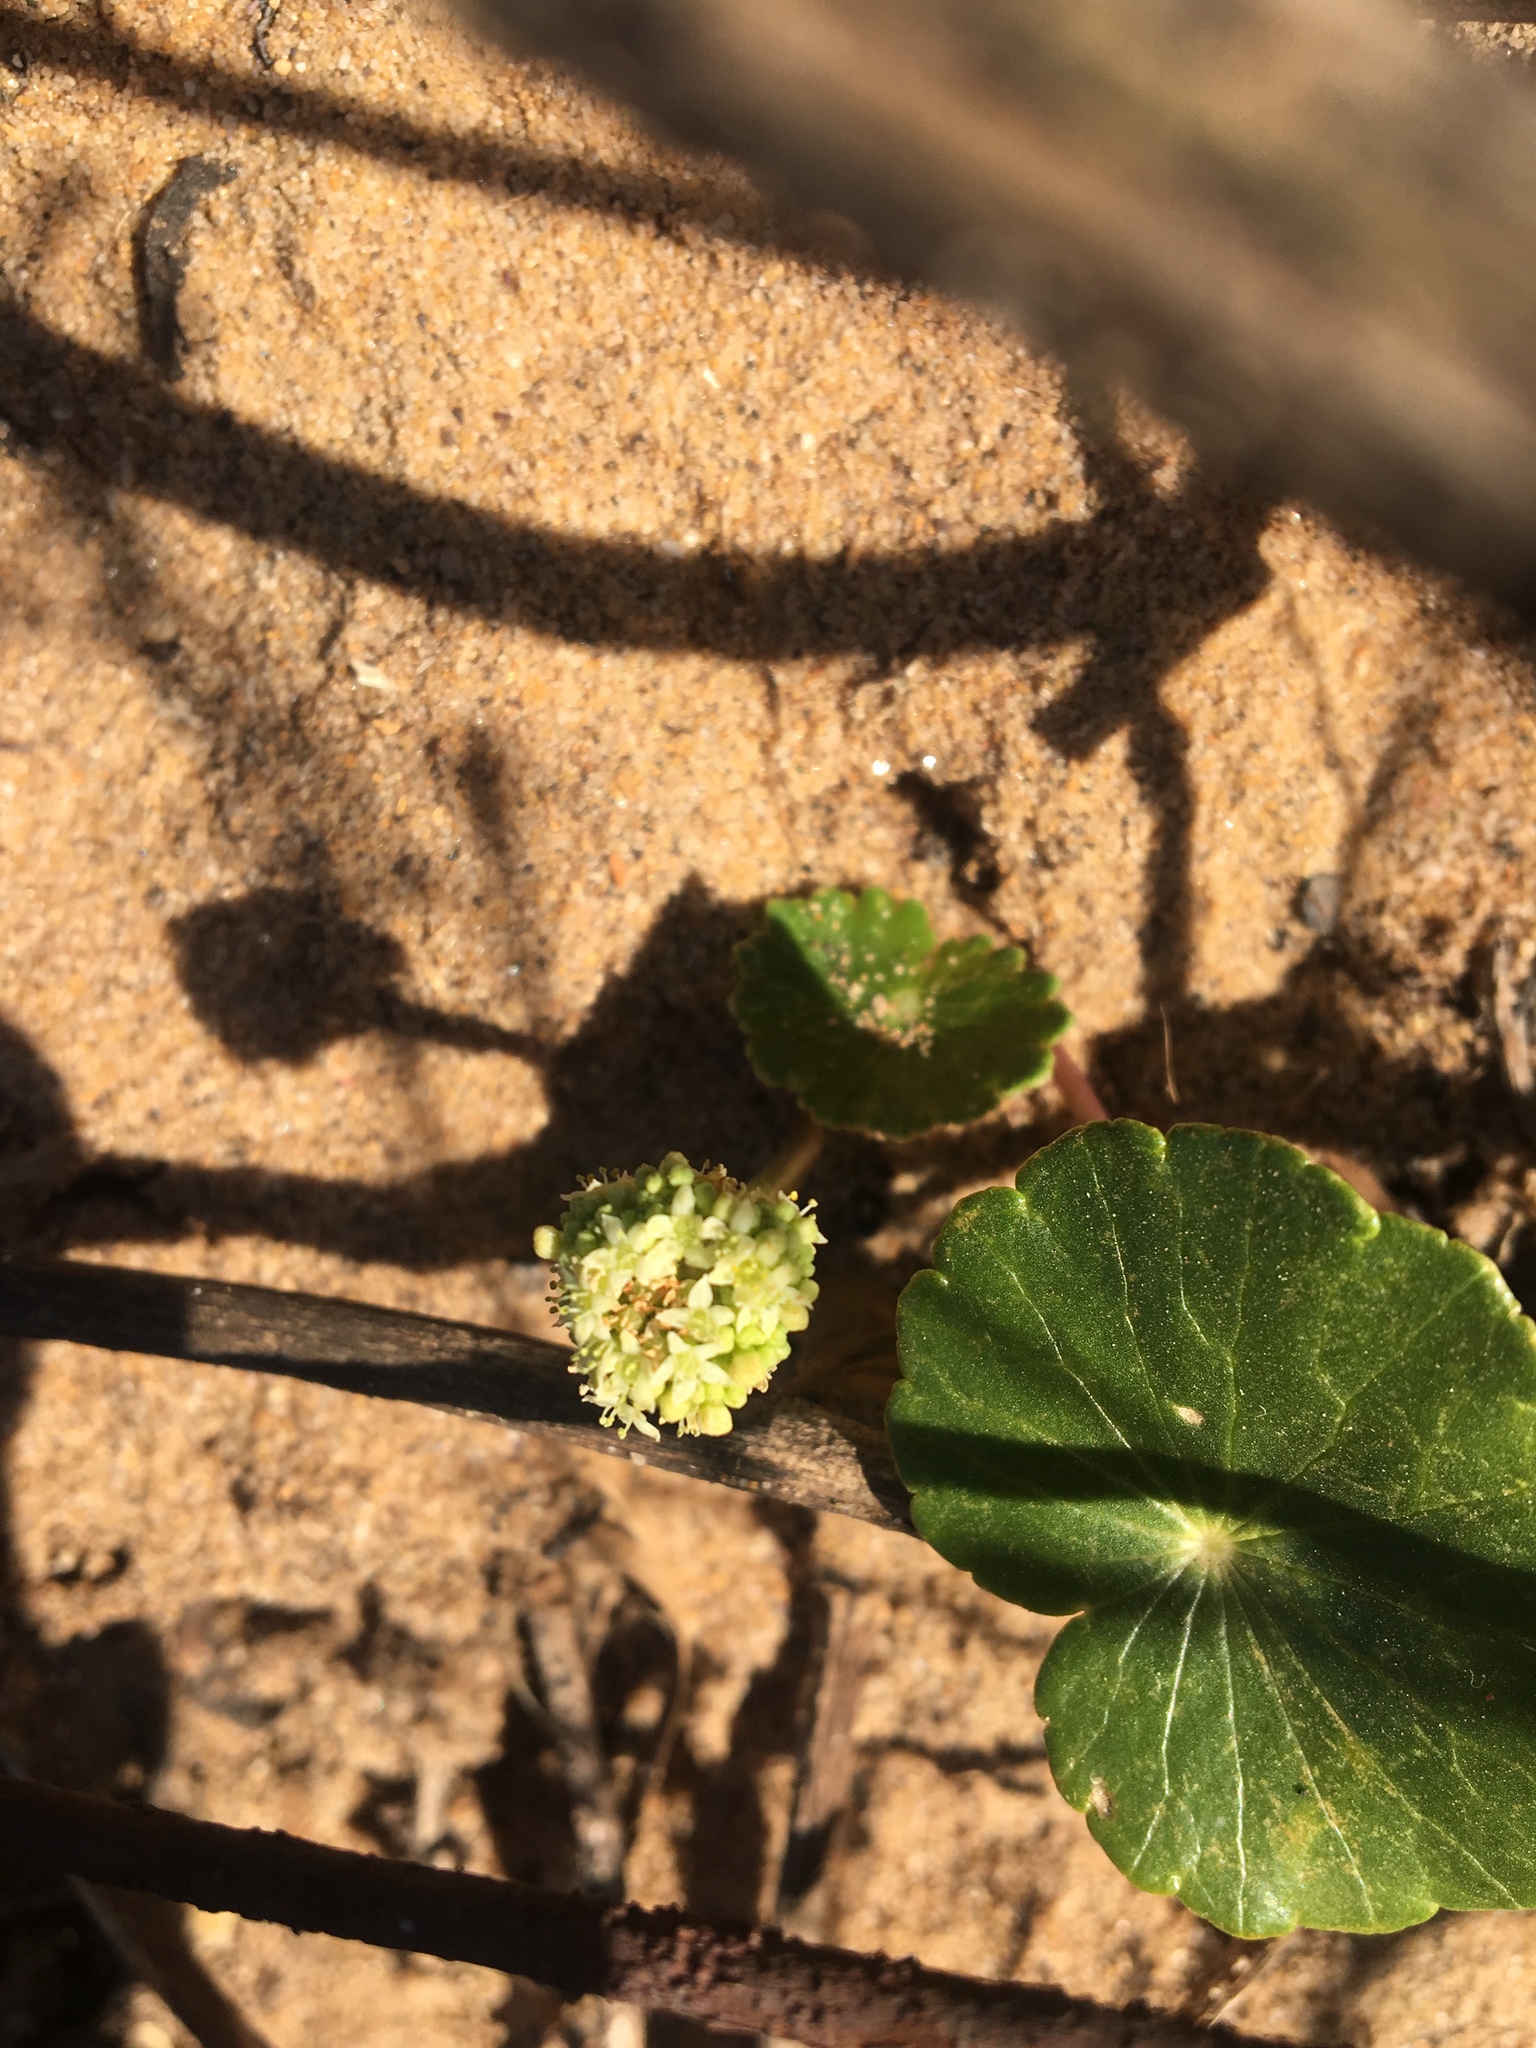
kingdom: Plantae
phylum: Tracheophyta
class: Magnoliopsida
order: Apiales
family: Araliaceae
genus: Hydrocotyle
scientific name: Hydrocotyle bonariensis
